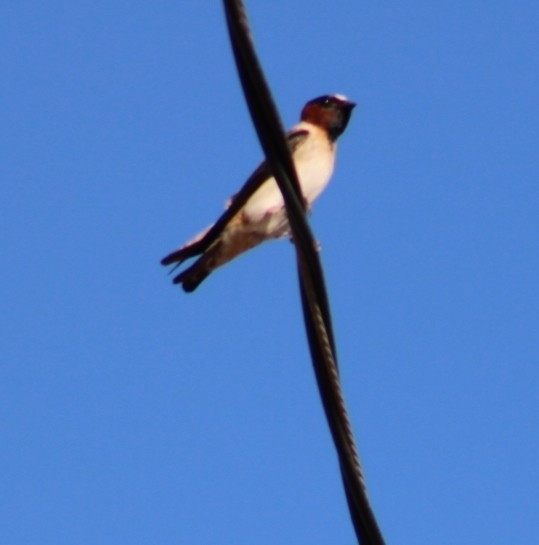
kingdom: Animalia
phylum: Chordata
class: Aves
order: Passeriformes
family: Hirundinidae
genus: Petrochelidon
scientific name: Petrochelidon pyrrhonota
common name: American cliff swallow
